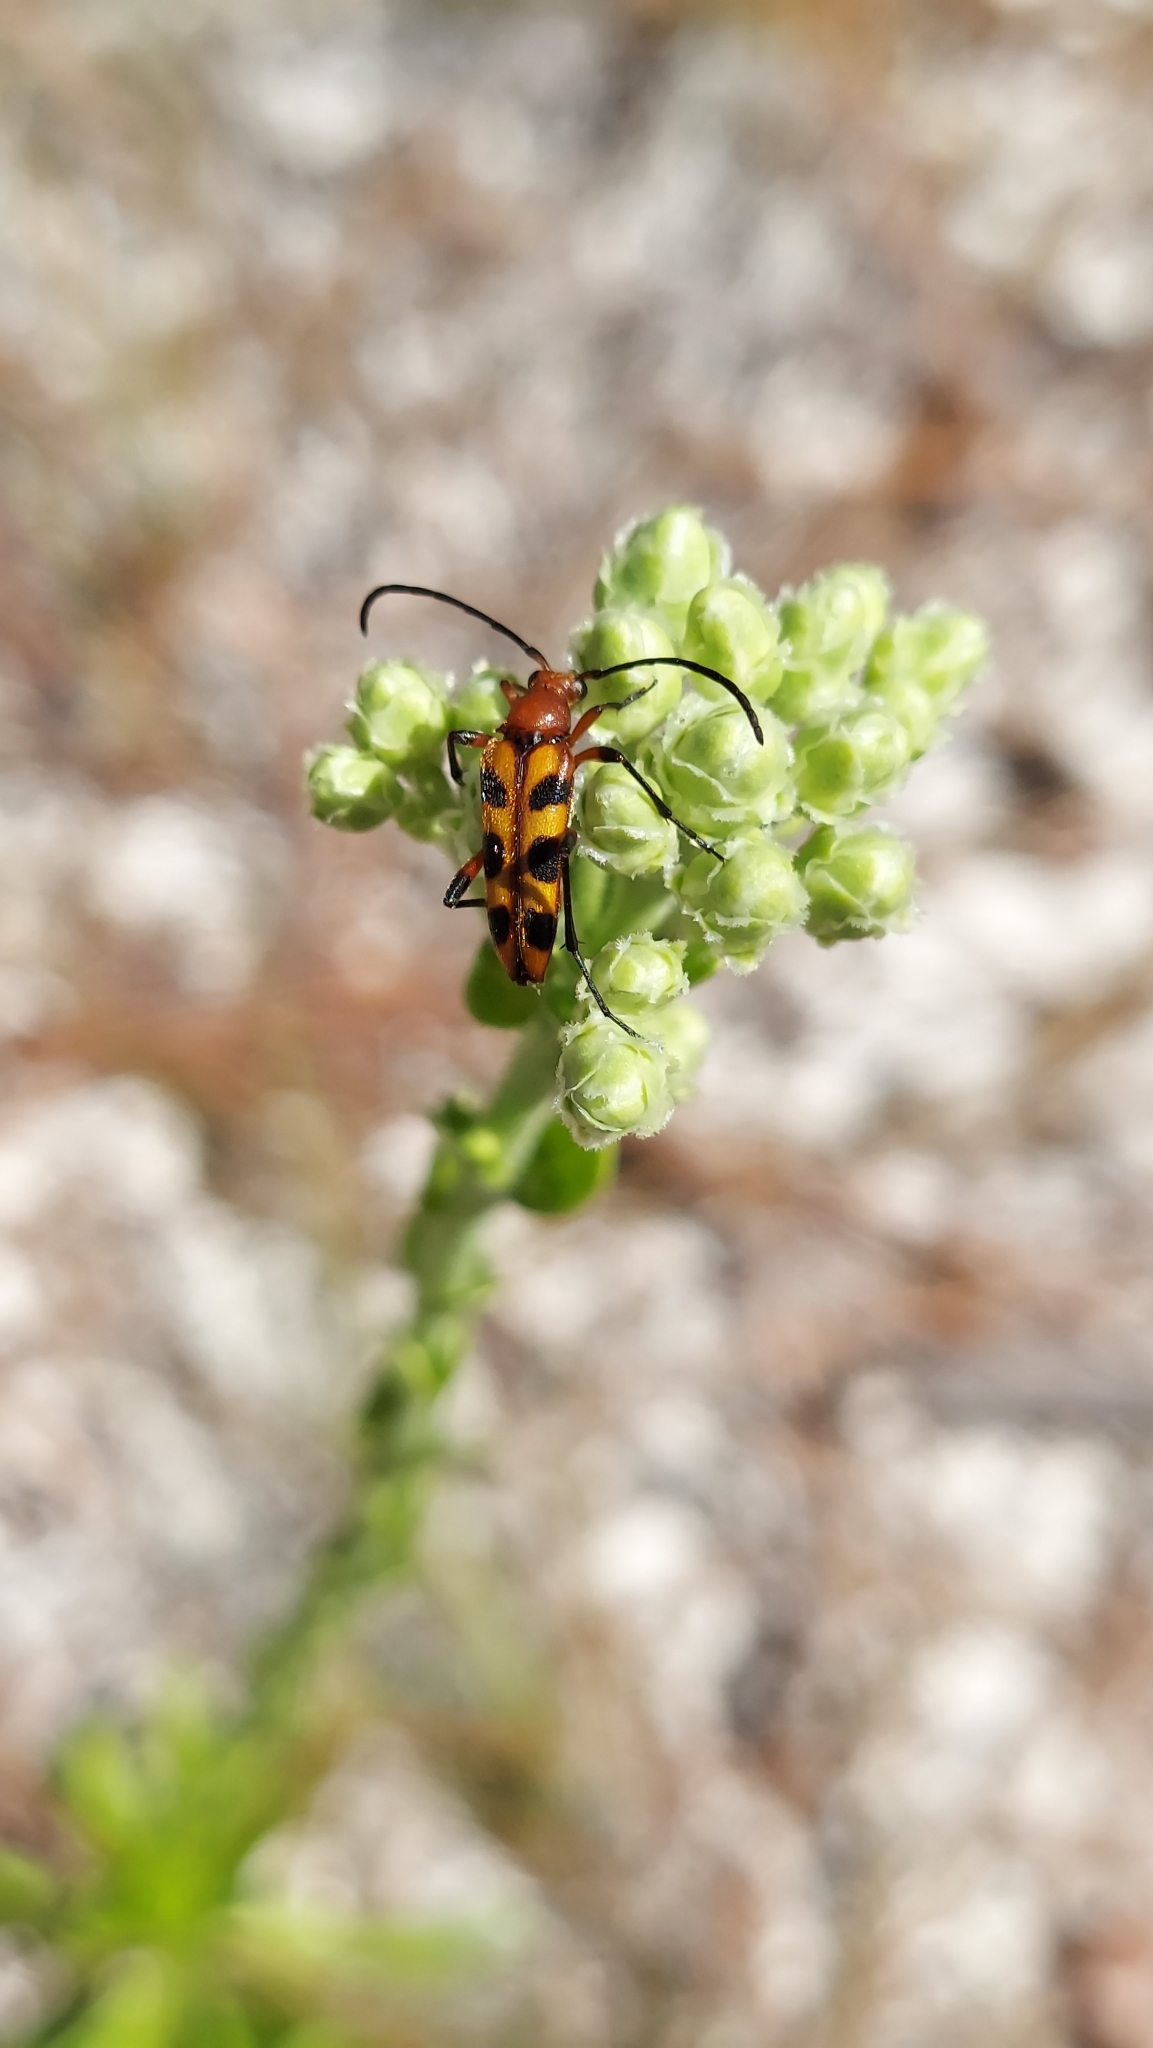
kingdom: Animalia
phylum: Arthropoda
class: Insecta
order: Coleoptera
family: Cerambycidae
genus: Strangalia
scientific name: Strangalia sexnotata
